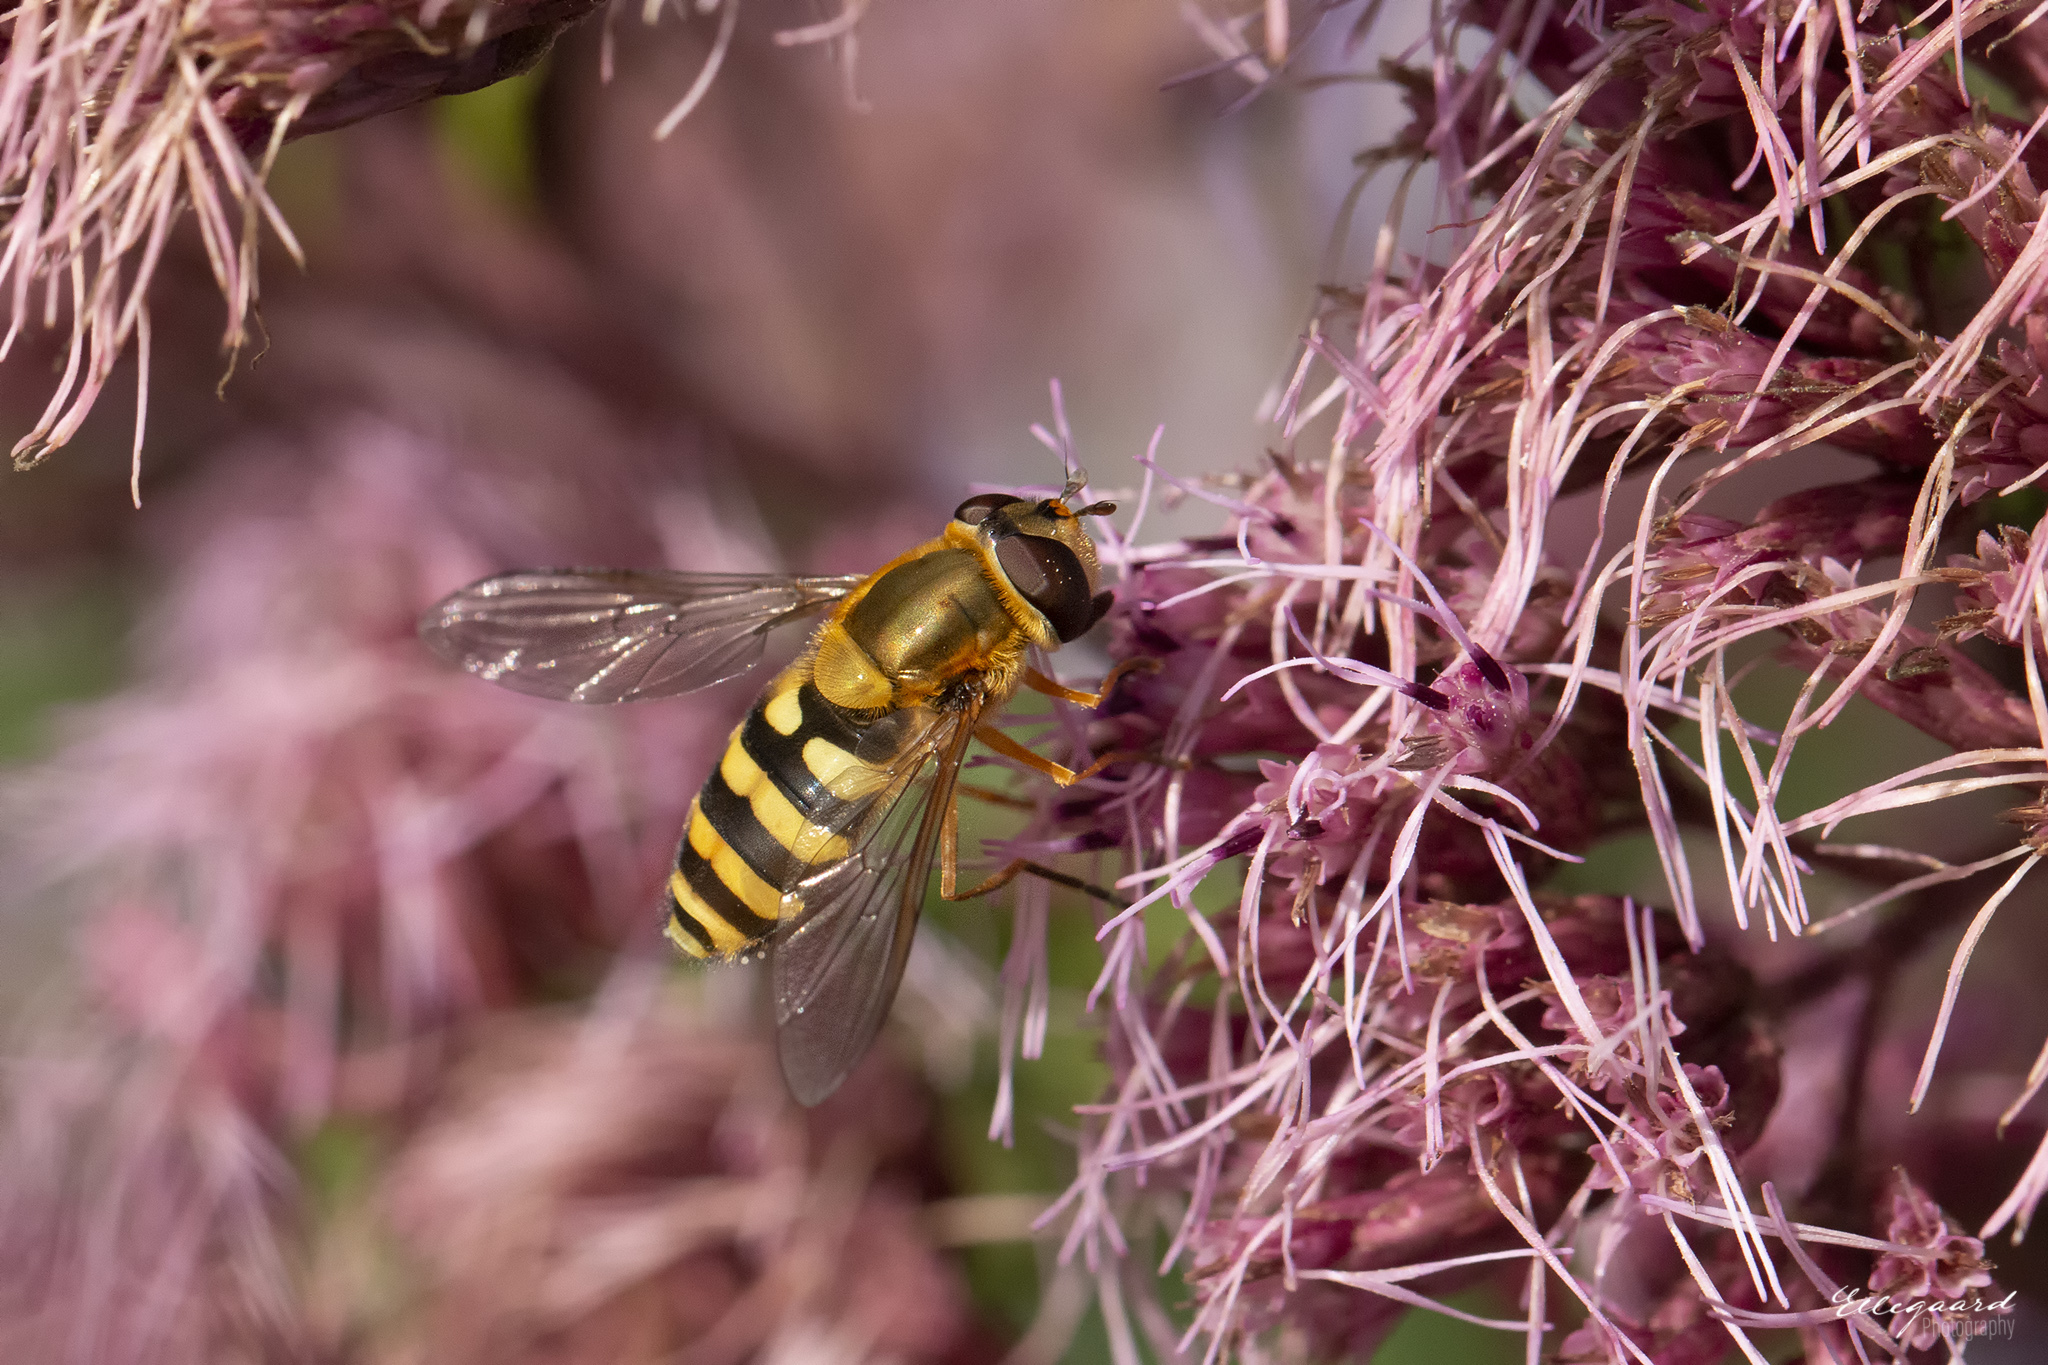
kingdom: Animalia
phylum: Arthropoda
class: Insecta
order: Diptera
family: Syrphidae
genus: Syrphus
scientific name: Syrphus ribesii
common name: Common flower fly
